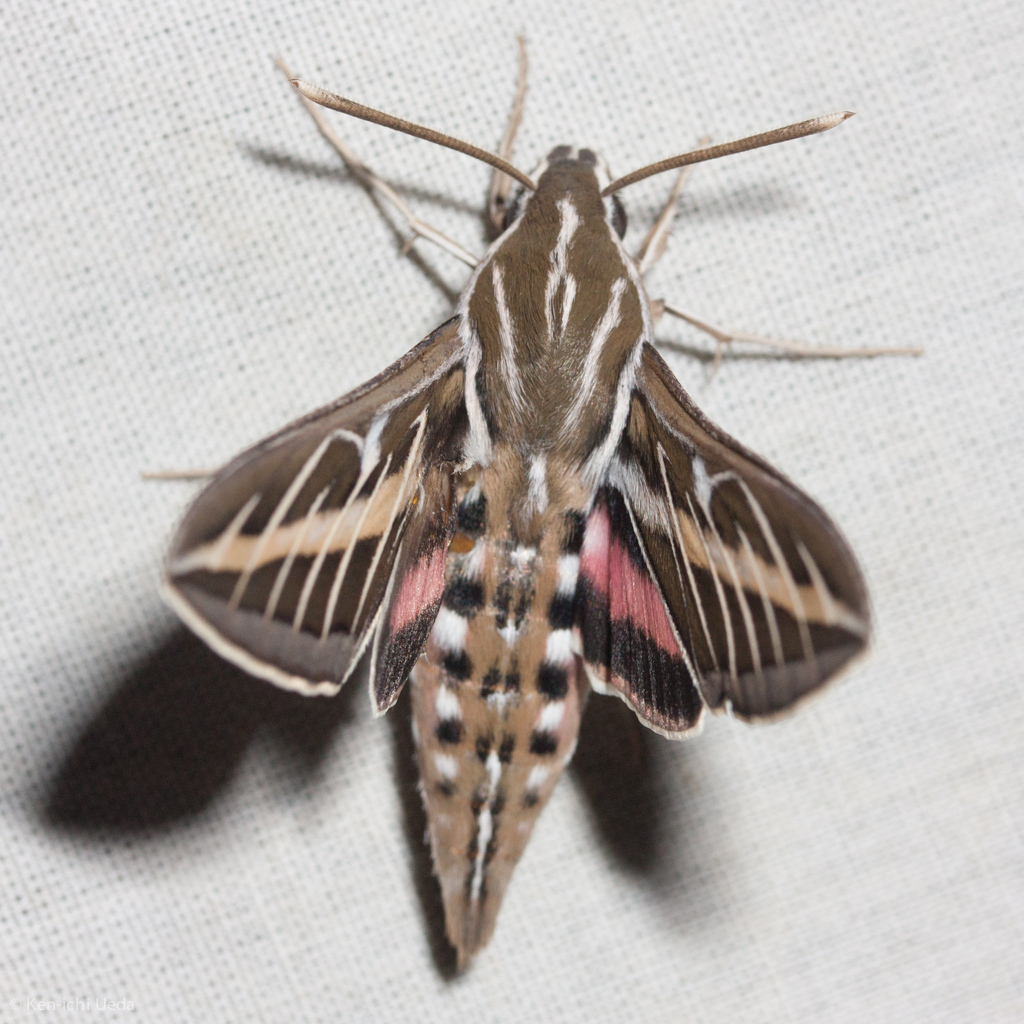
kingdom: Animalia
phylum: Arthropoda
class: Insecta
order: Lepidoptera
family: Sphingidae
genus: Hyles
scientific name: Hyles lineata
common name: White-lined sphinx
